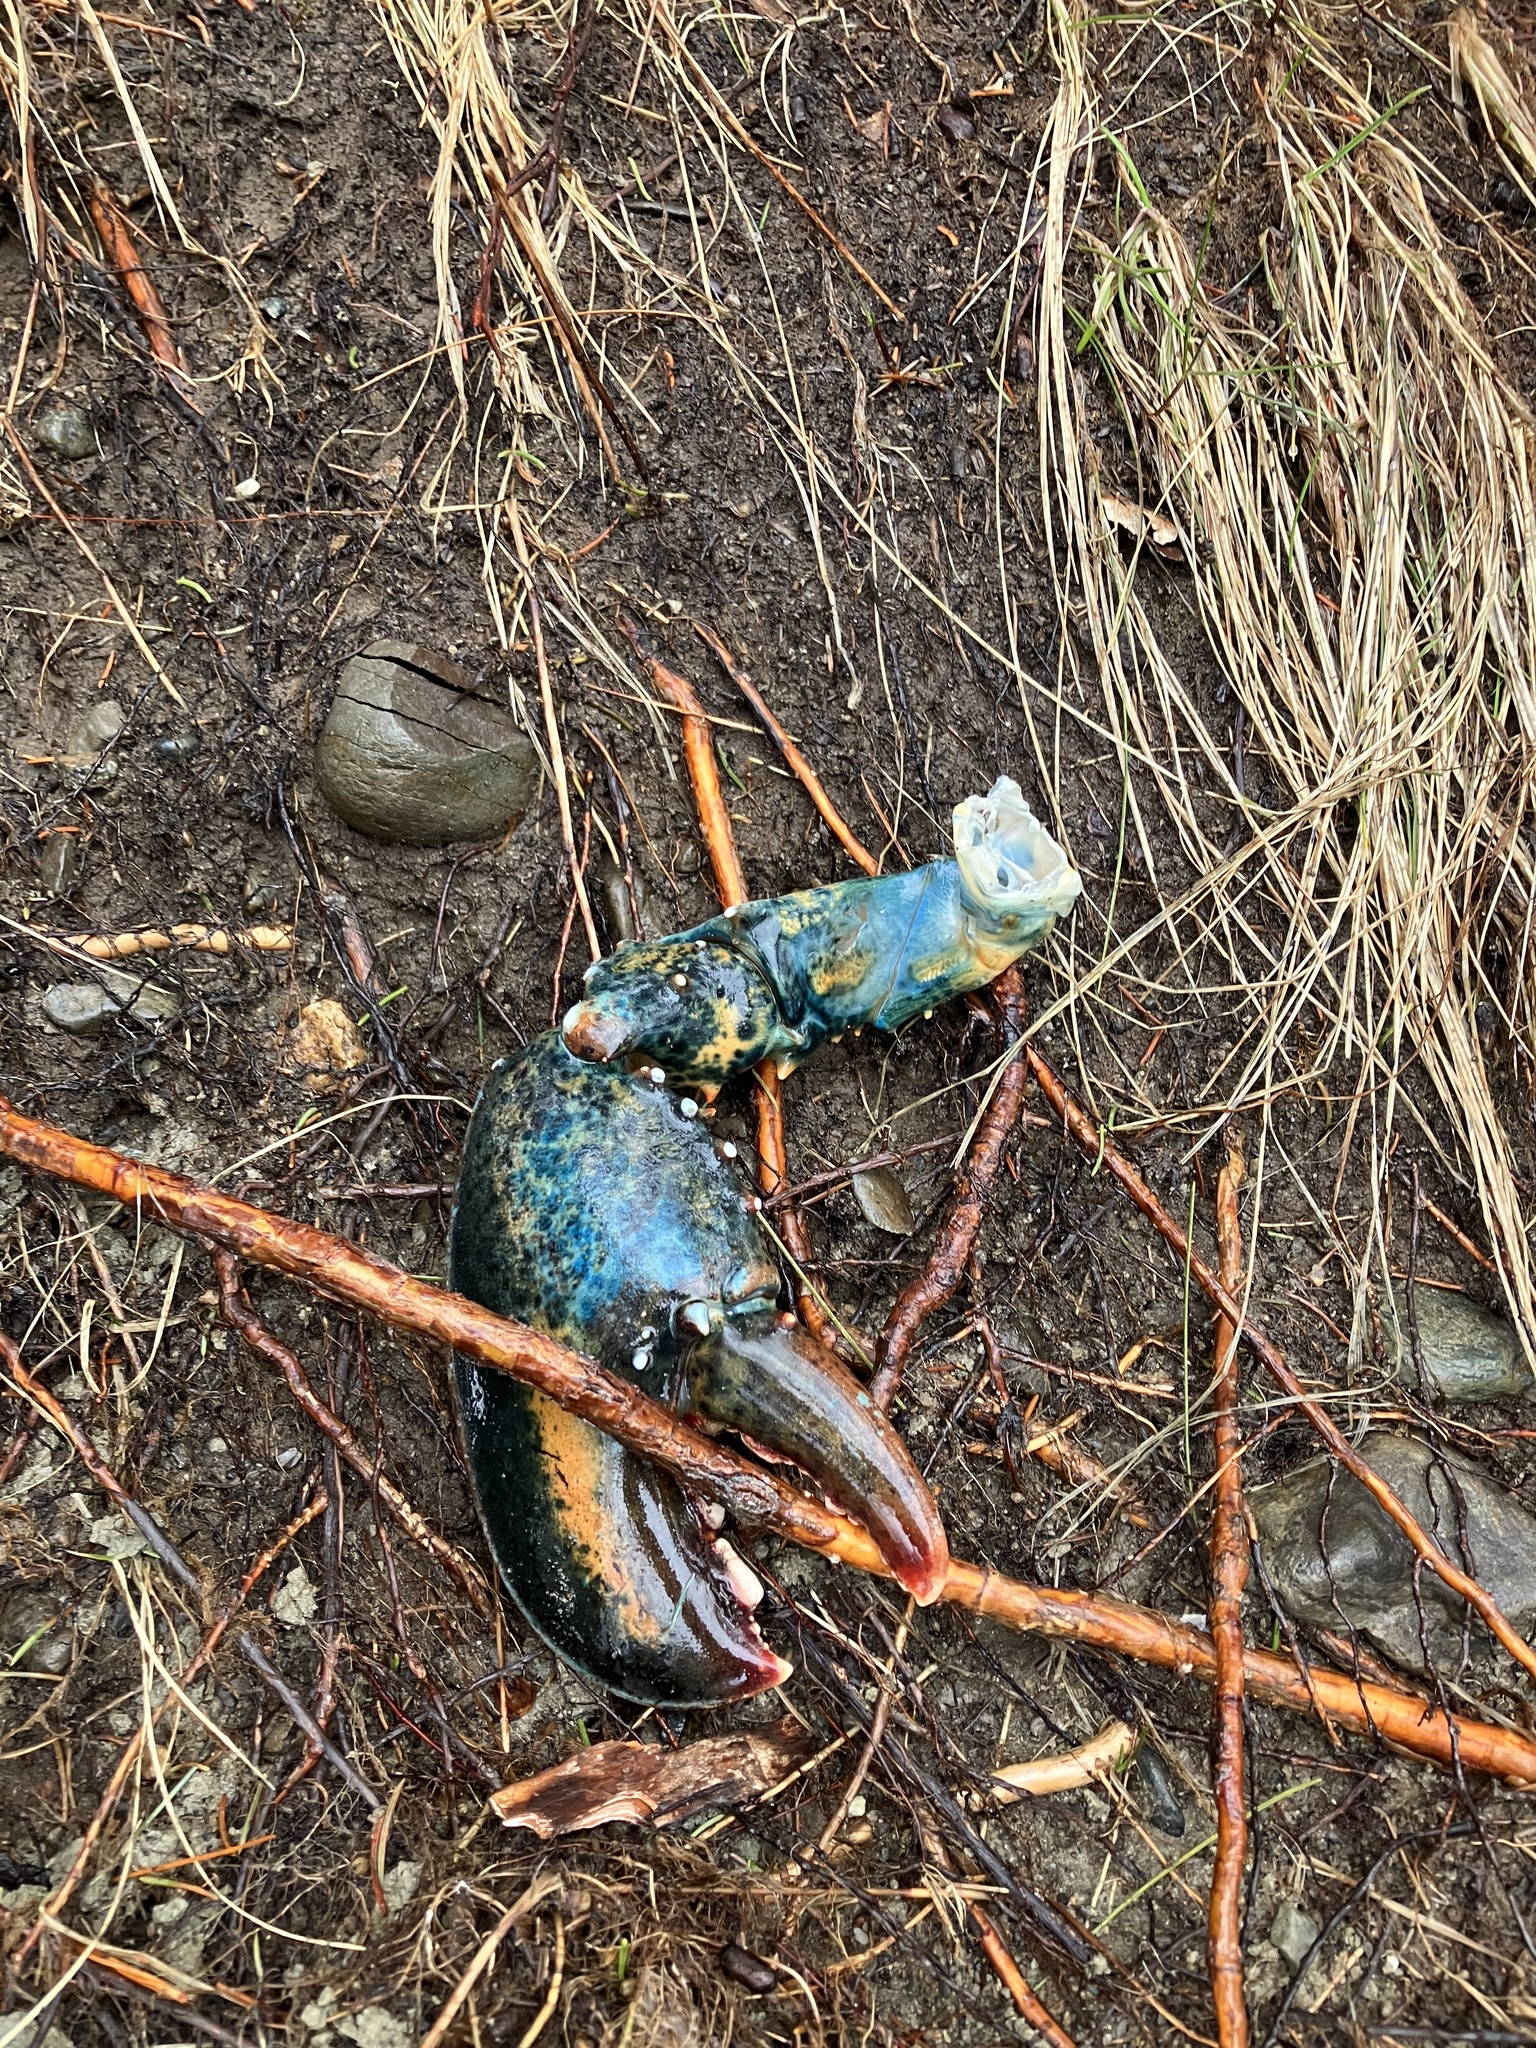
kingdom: Animalia
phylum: Arthropoda
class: Malacostraca
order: Decapoda
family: Nephropidae
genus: Homarus
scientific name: Homarus americanus
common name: American lobster
